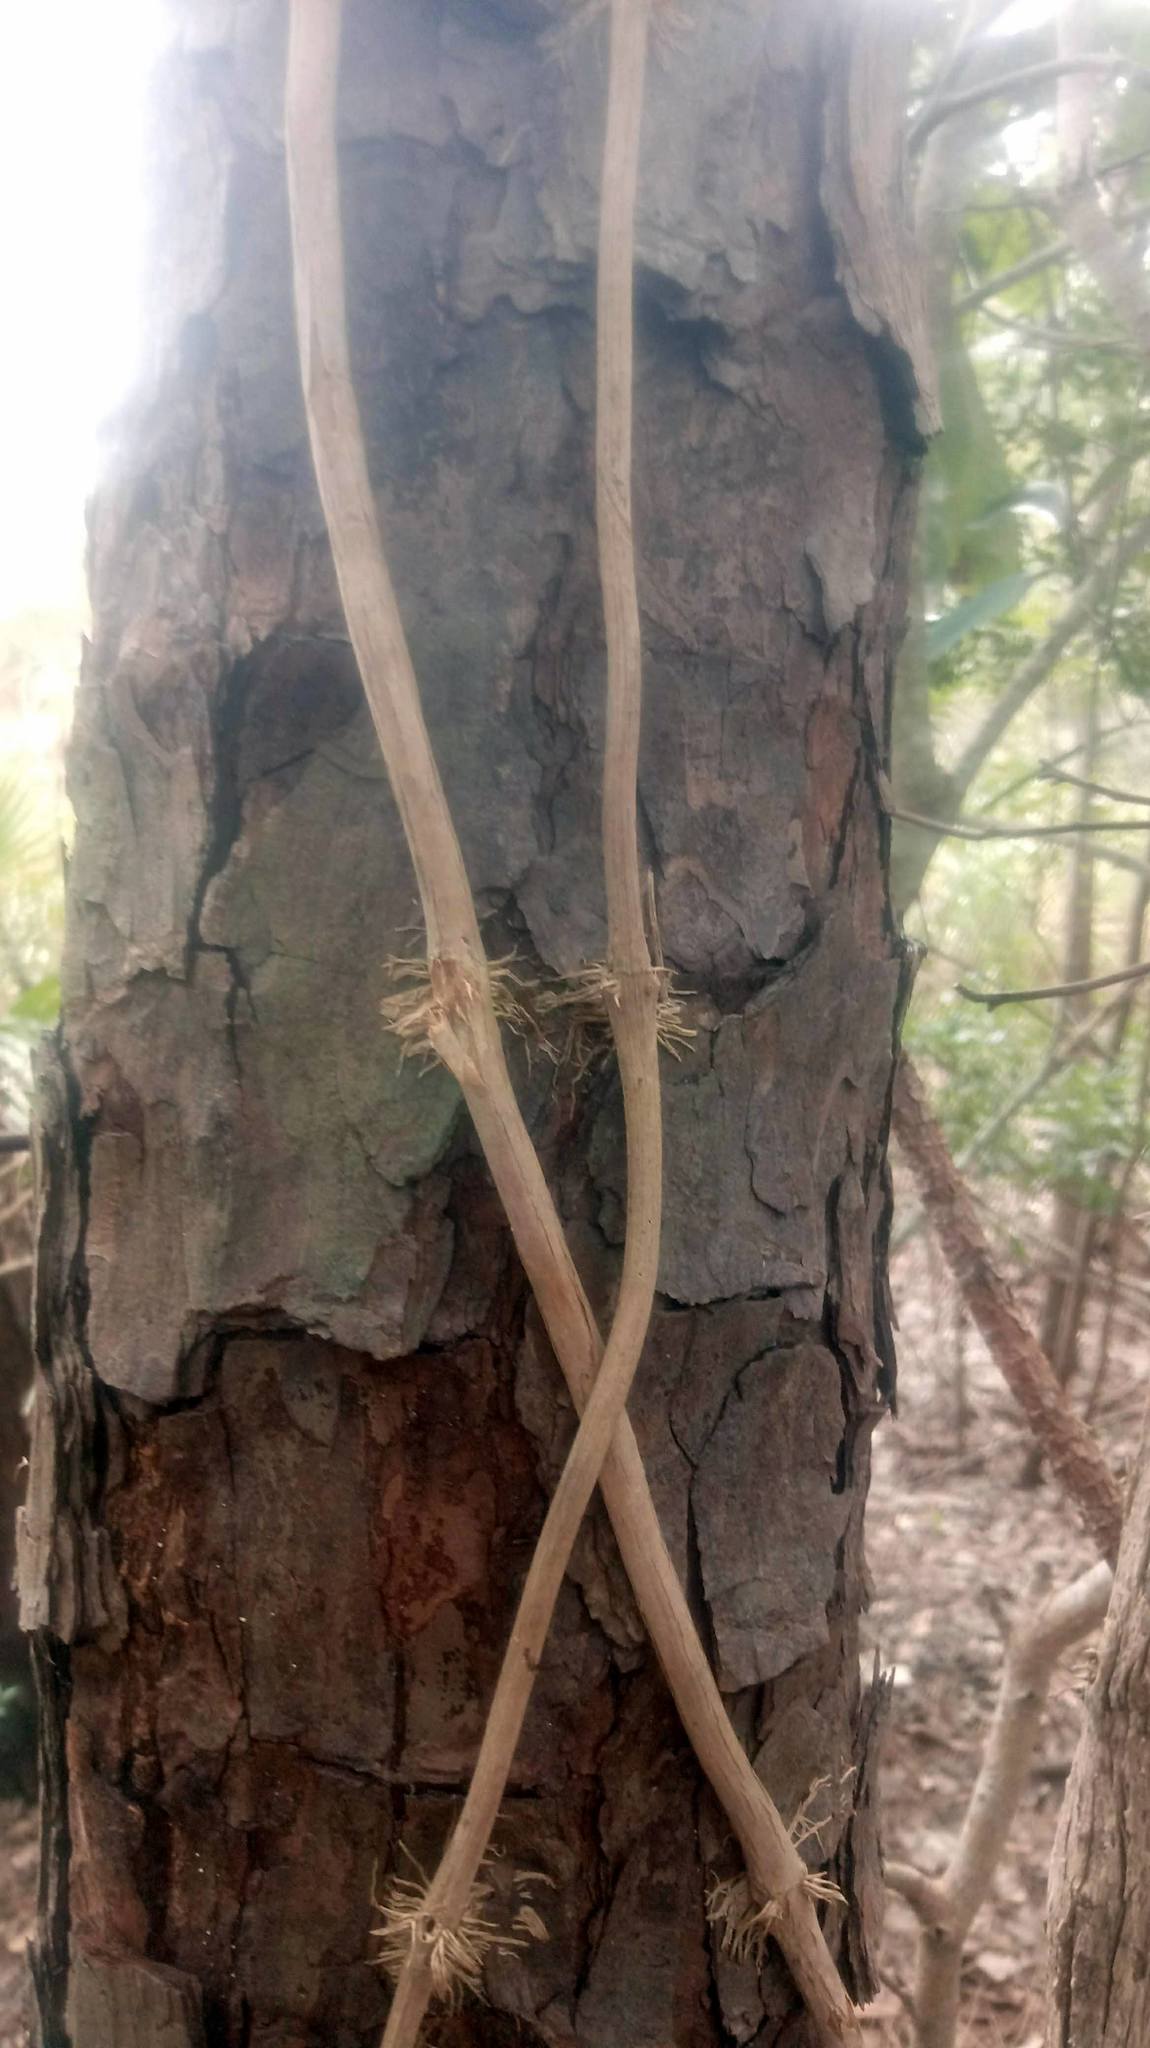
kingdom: Plantae
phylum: Tracheophyta
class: Magnoliopsida
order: Lamiales
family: Bignoniaceae
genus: Campsis
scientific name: Campsis radicans
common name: Trumpet-creeper
